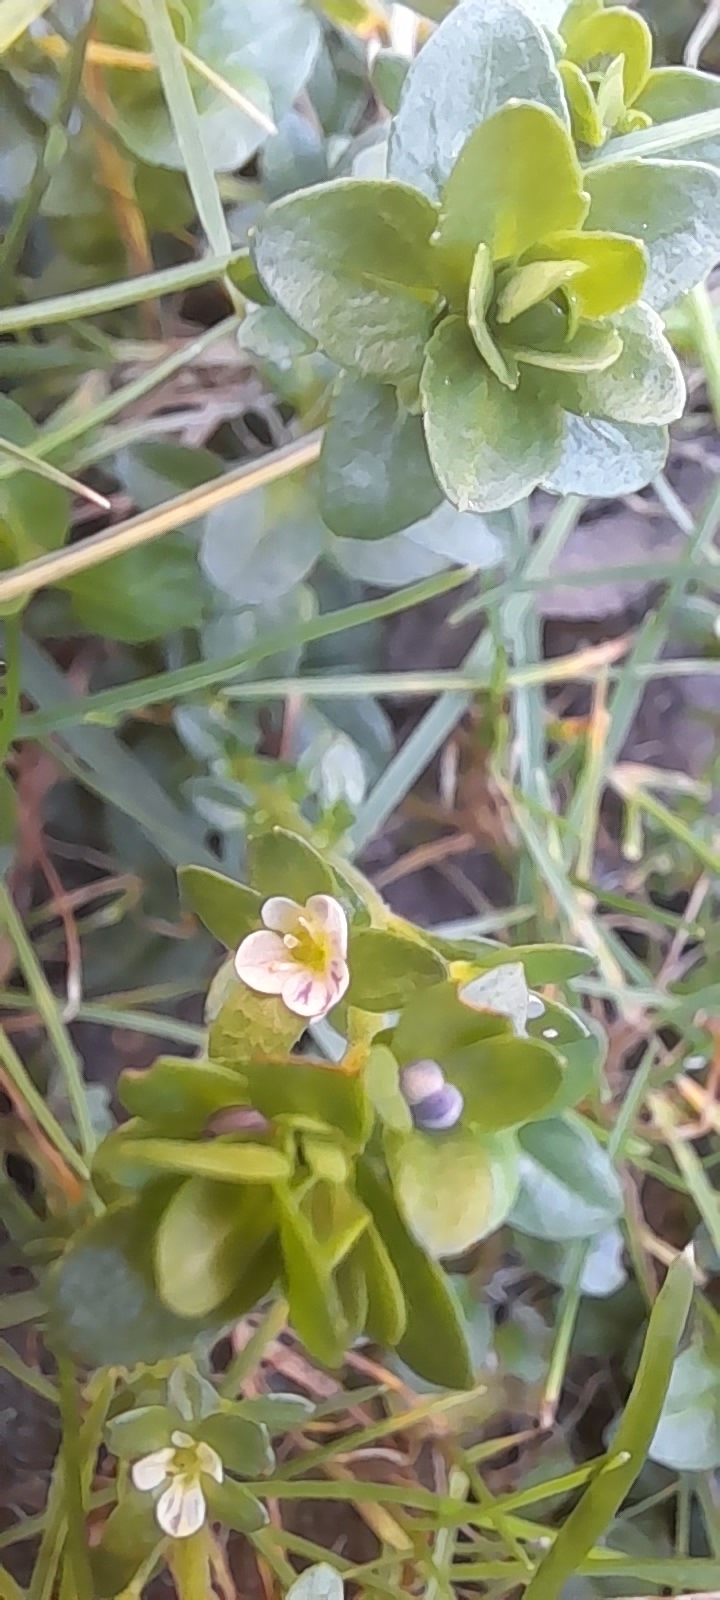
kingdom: Plantae
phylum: Tracheophyta
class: Magnoliopsida
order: Lamiales
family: Plantaginaceae
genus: Veronica
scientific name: Veronica serpyllifolia
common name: Thyme-leaved speedwell
